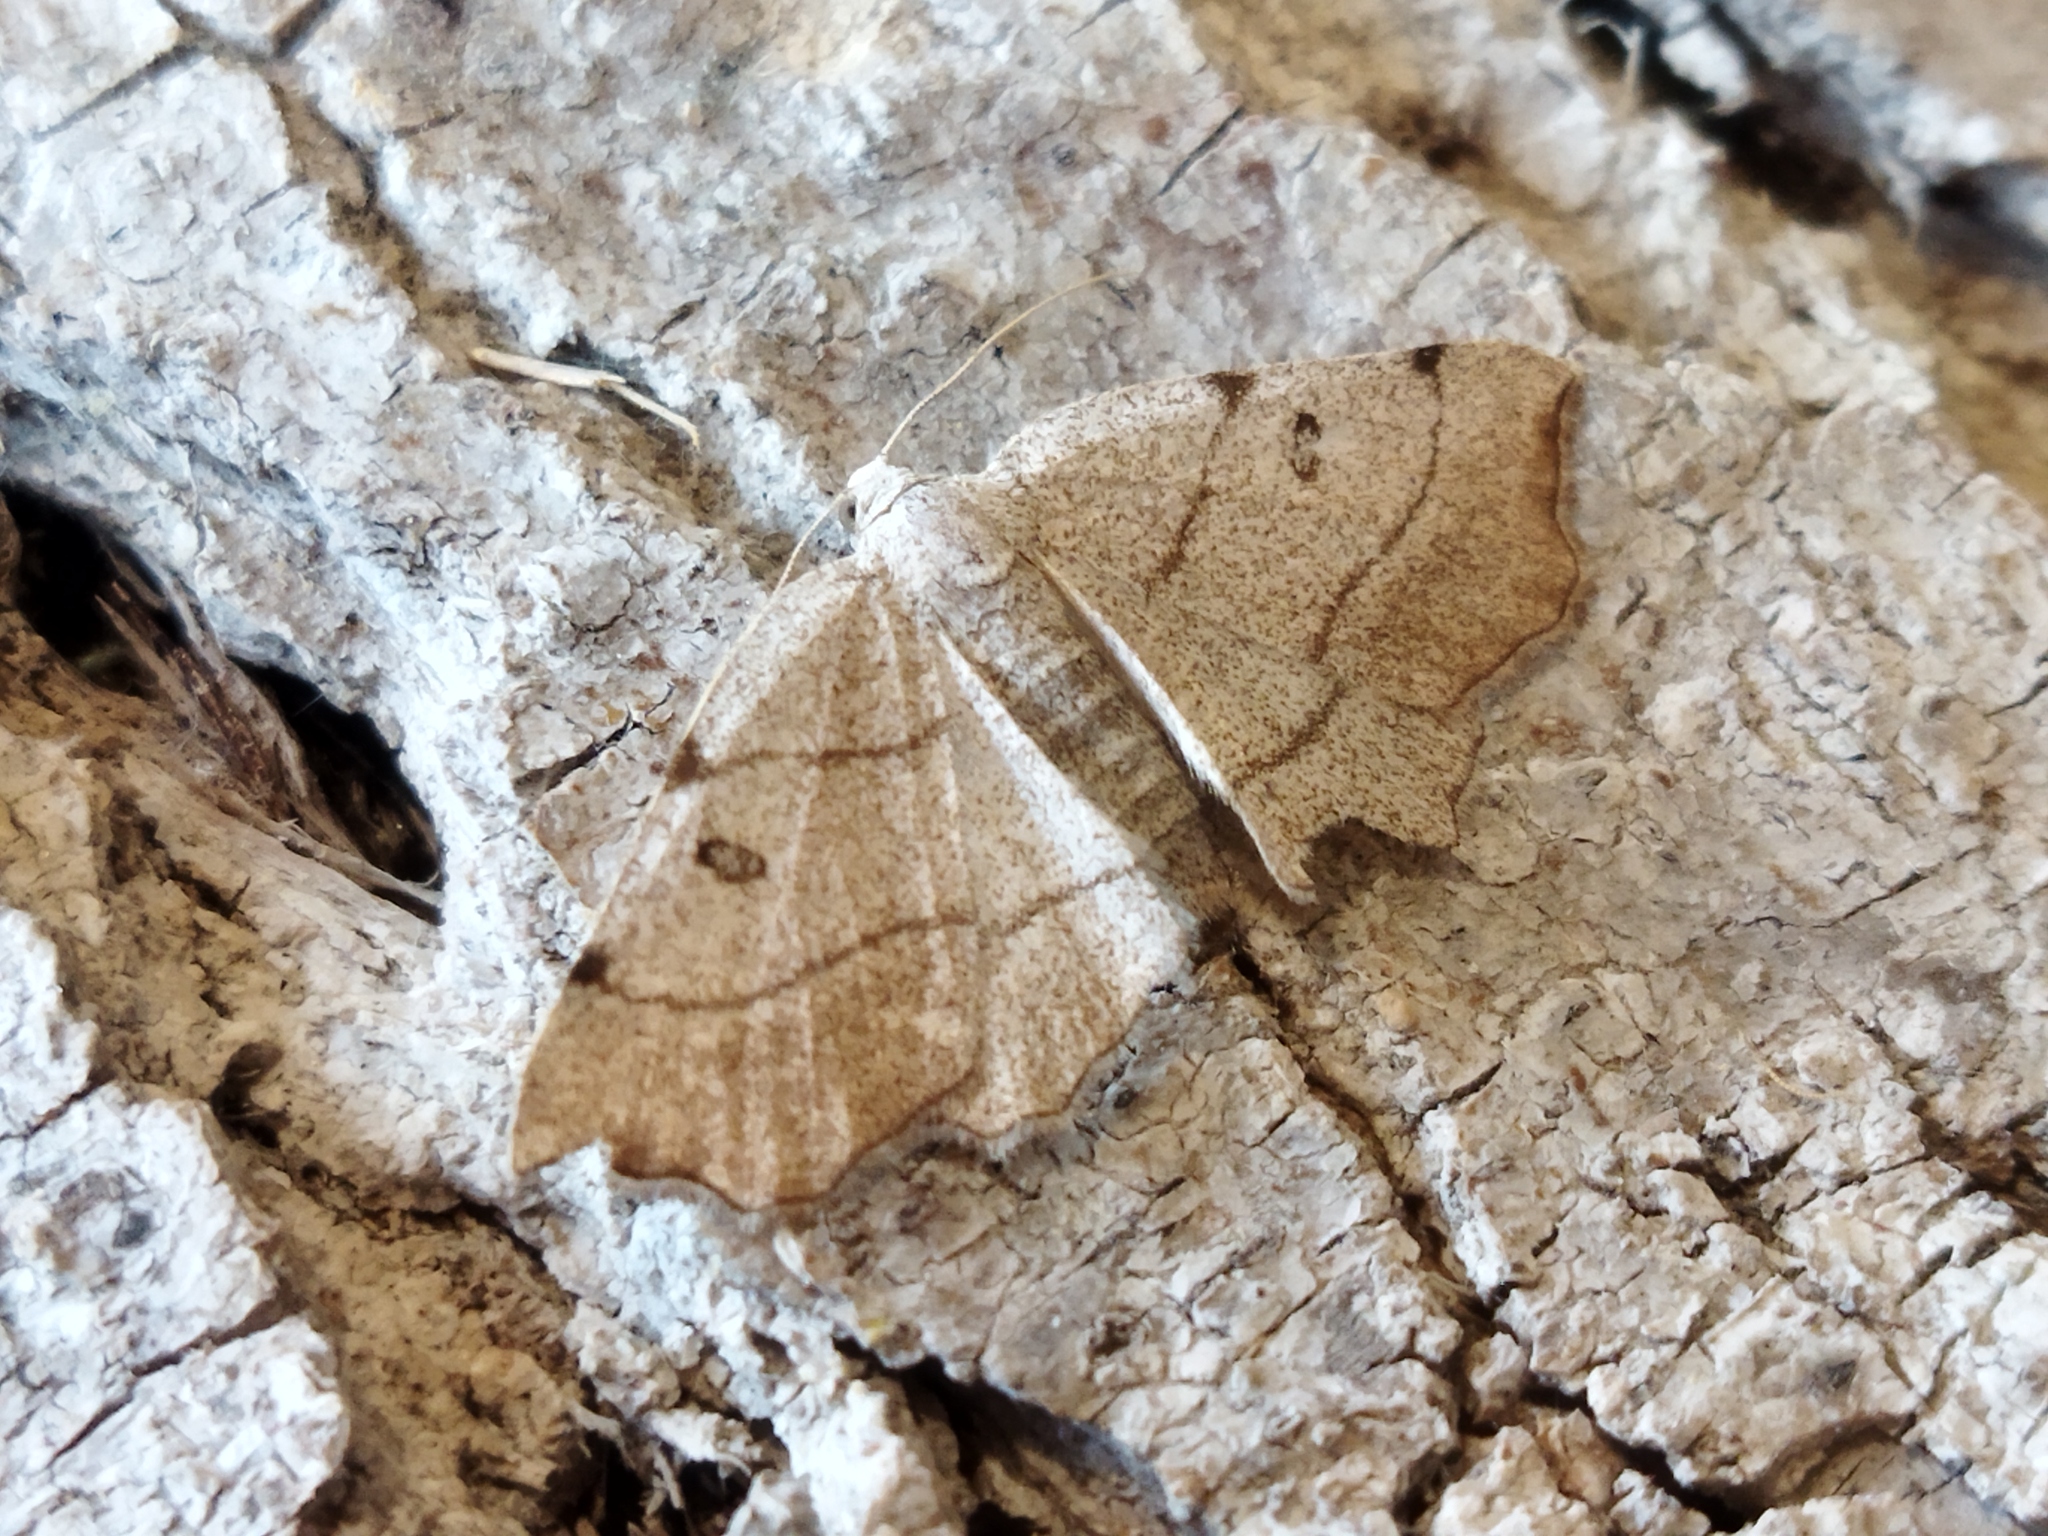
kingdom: Animalia
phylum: Arthropoda
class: Insecta
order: Lepidoptera
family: Geometridae
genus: Eilicrinia
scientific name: Eilicrinia trinotata
